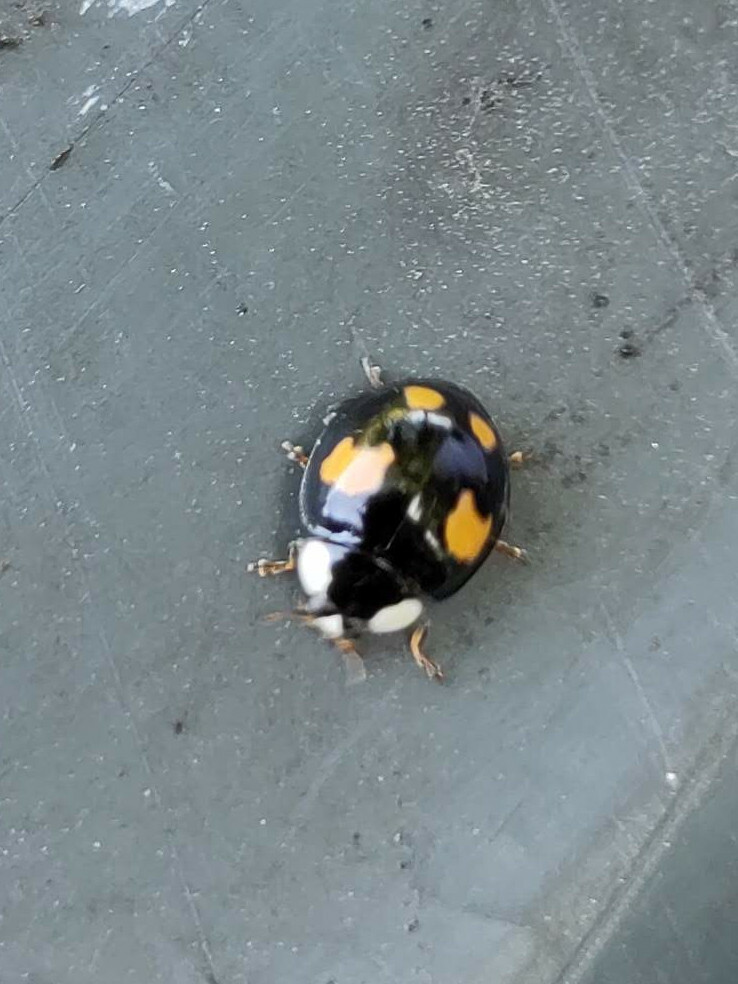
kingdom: Animalia
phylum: Arthropoda
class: Insecta
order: Coleoptera
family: Coccinellidae
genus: Harmonia
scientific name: Harmonia axyridis
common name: Harlequin ladybird
